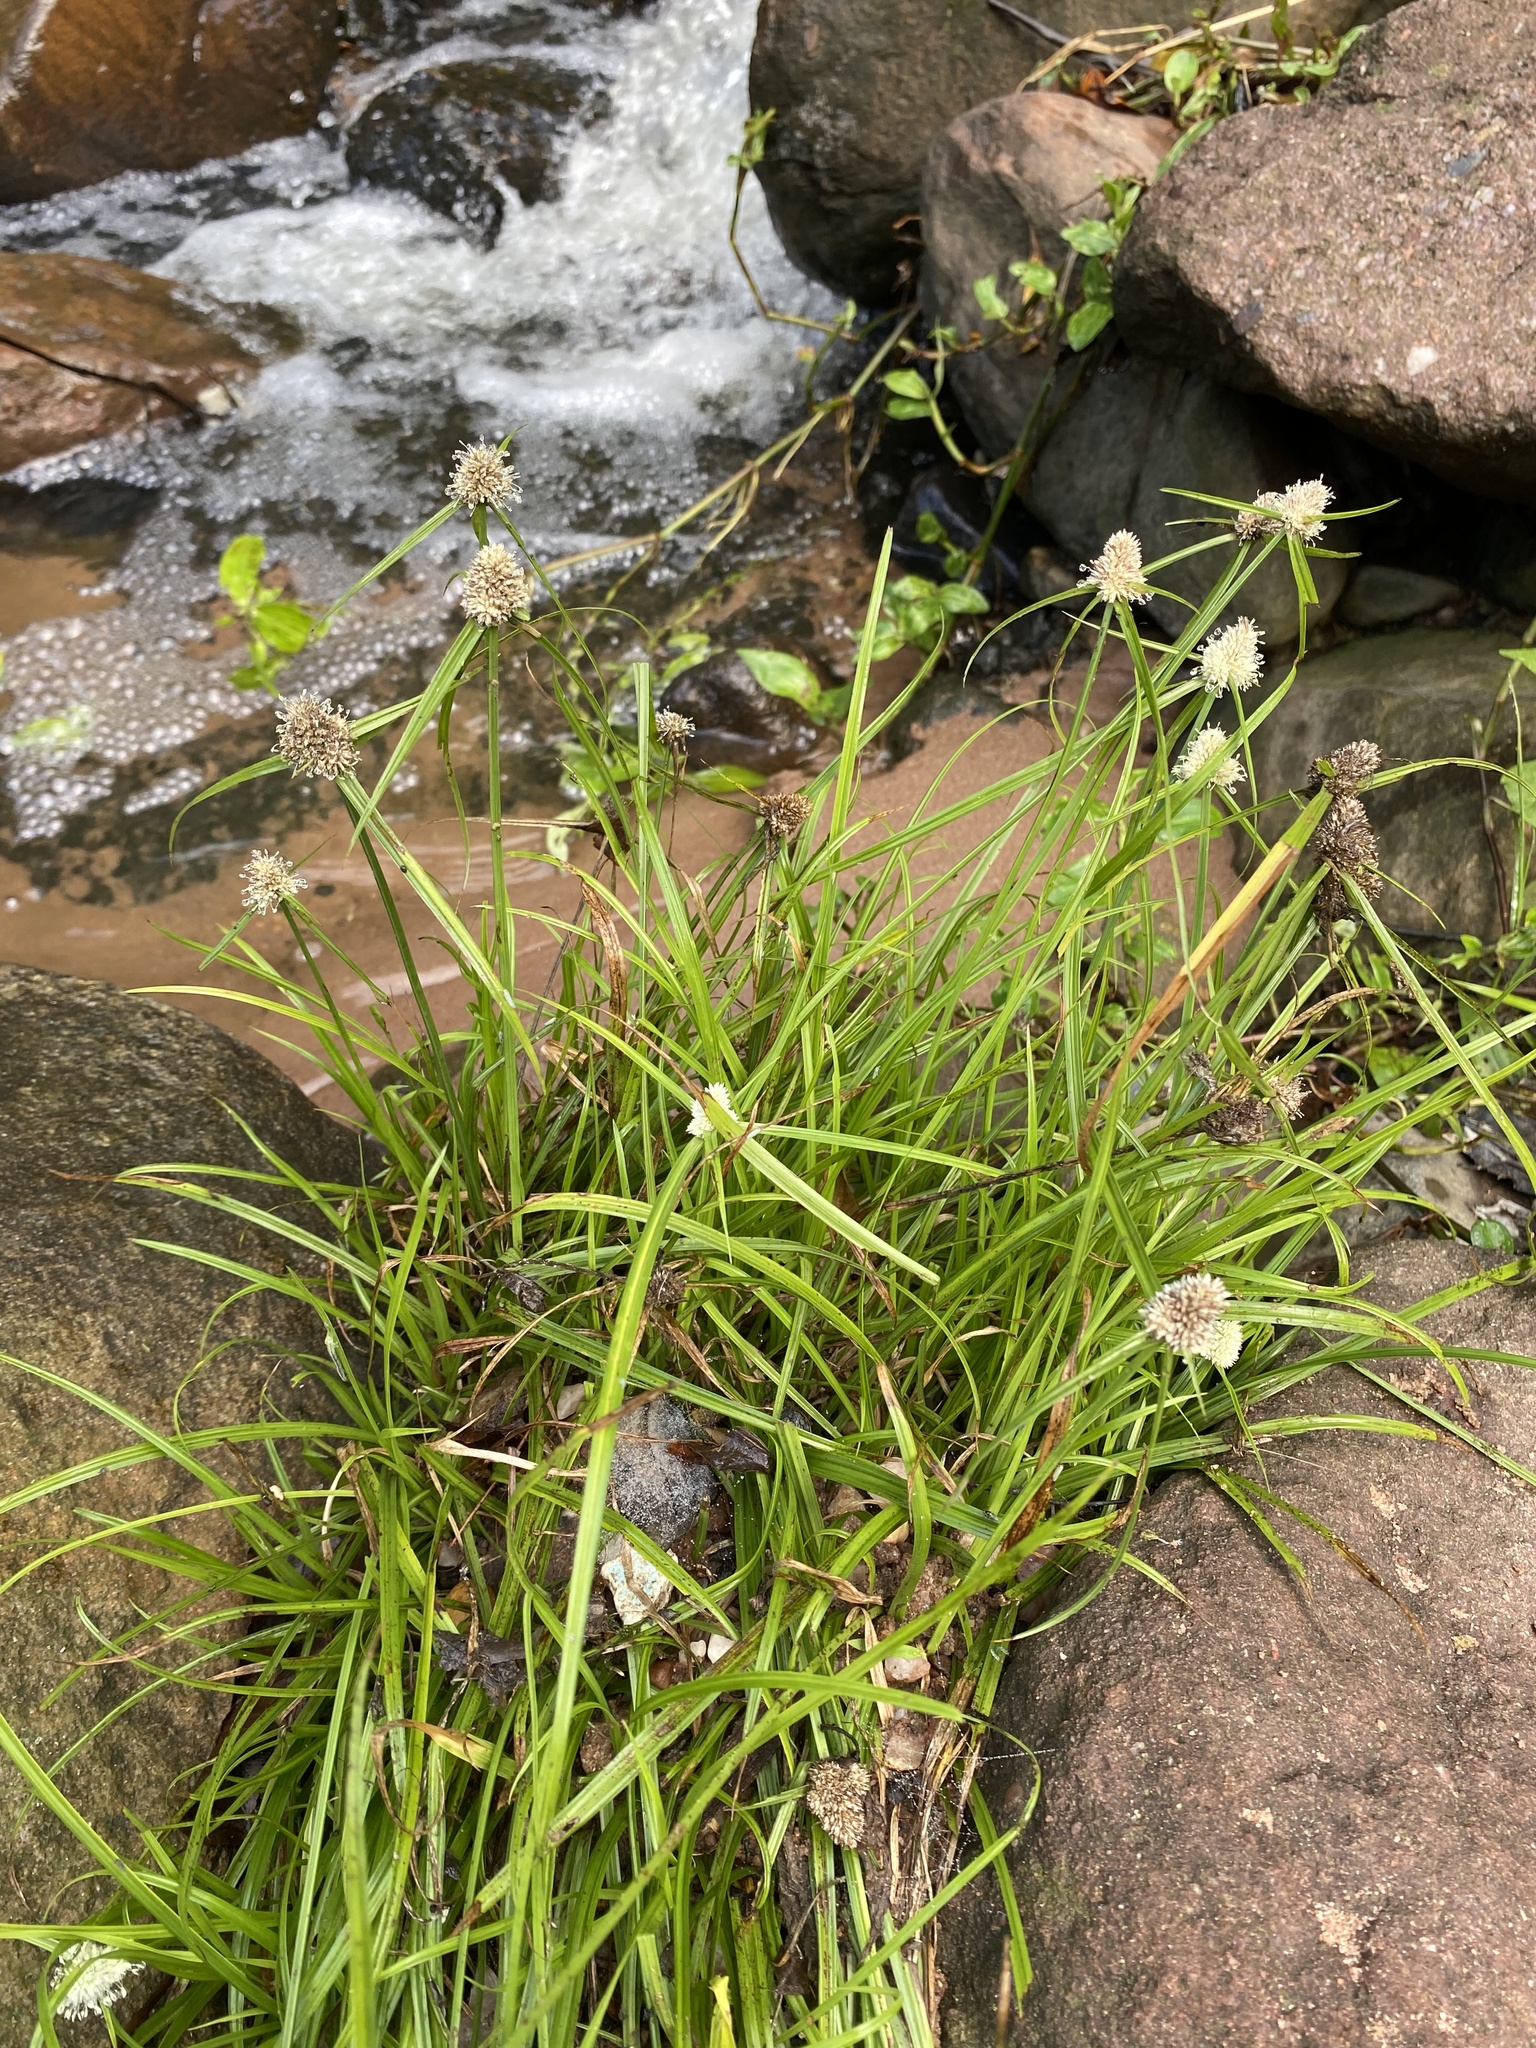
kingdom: Plantae
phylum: Tracheophyta
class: Liliopsida
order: Poales
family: Cyperaceae
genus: Cyperus
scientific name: Cyperus brevifolius
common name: Globe kyllinga
